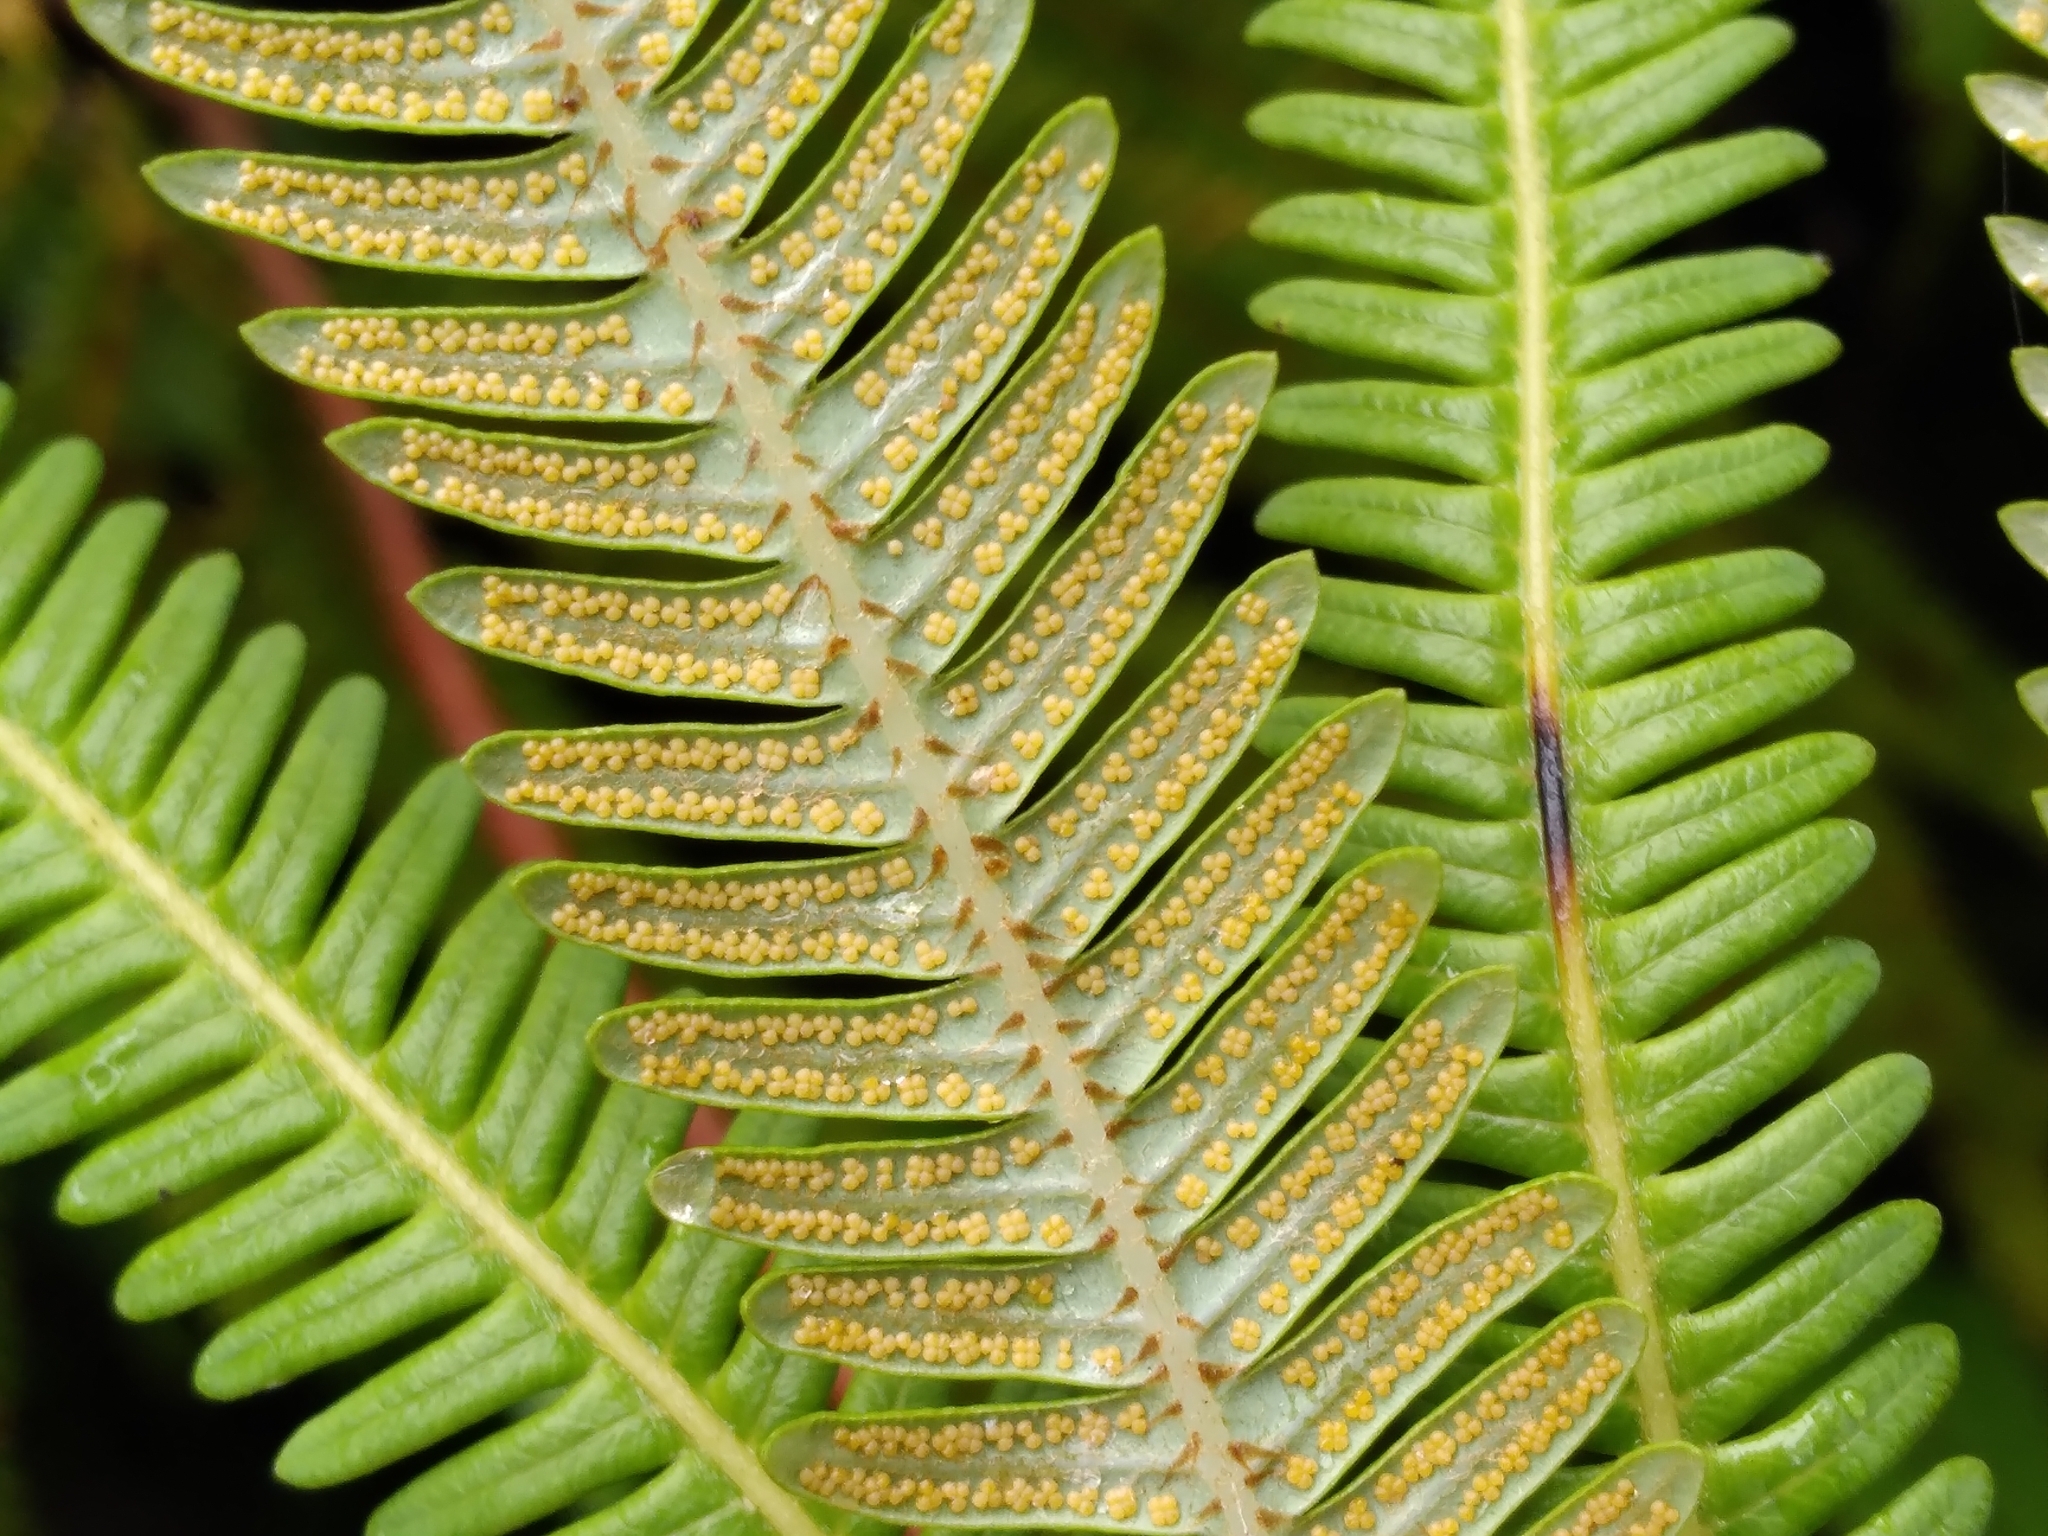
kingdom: Plantae
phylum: Tracheophyta
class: Polypodiopsida
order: Gleicheniales
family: Gleicheniaceae
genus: Sticherus
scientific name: Sticherus cunninghamii
